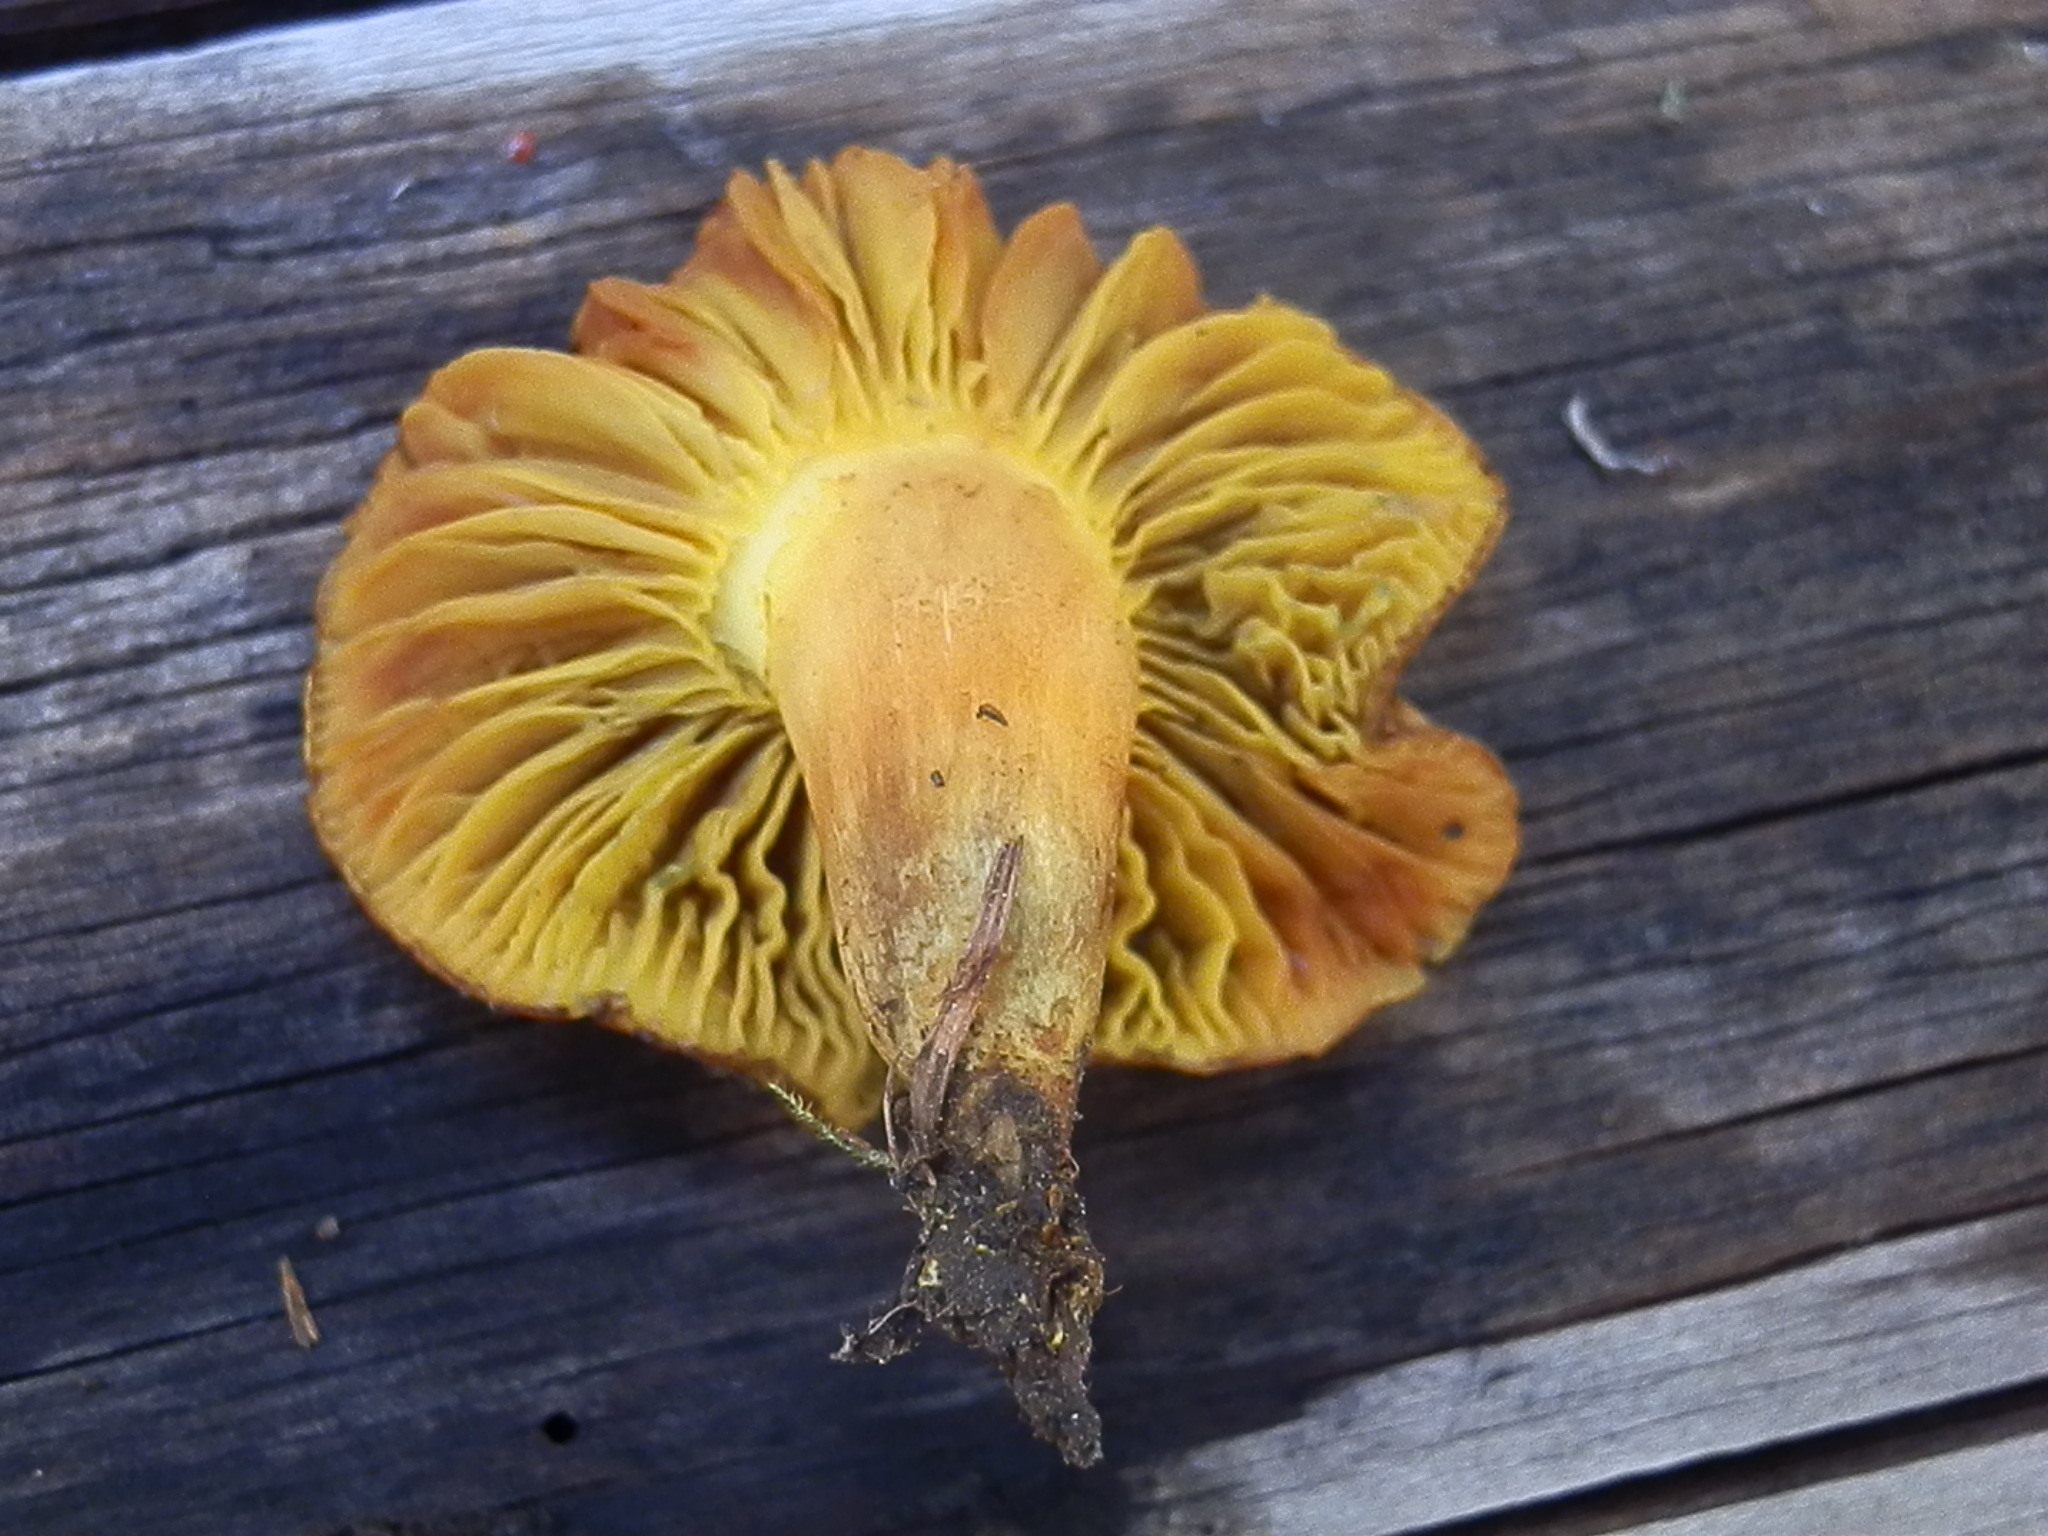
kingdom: Fungi
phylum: Basidiomycota
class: Agaricomycetes
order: Boletales
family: Boletaceae
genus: Phylloporus
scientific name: Phylloporus arenicola
